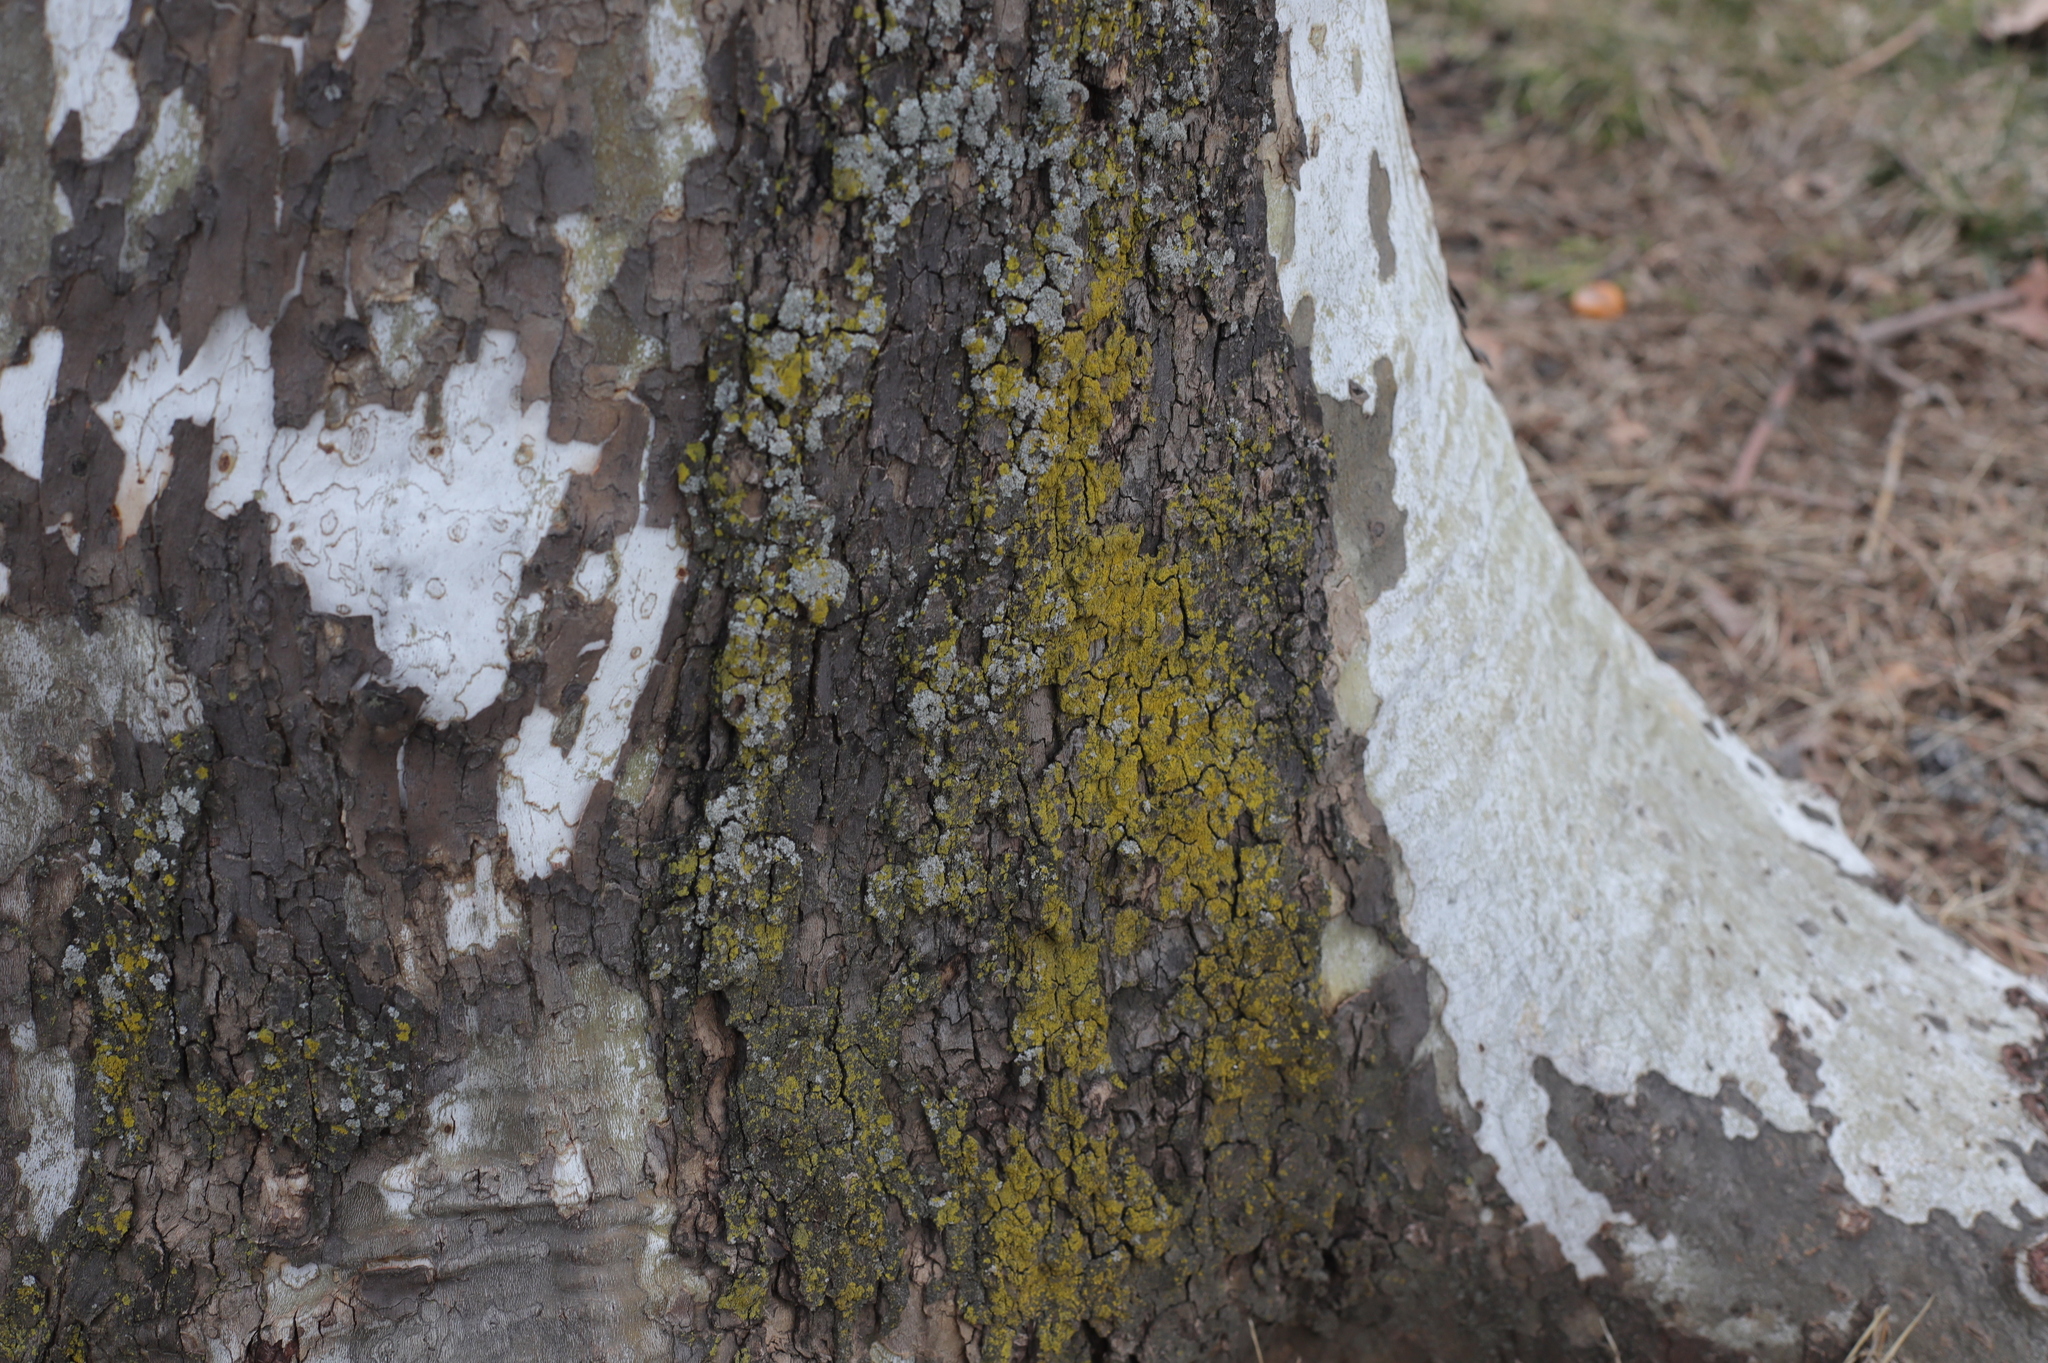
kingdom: Fungi
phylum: Ascomycota
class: Candelariomycetes
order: Candelariales
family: Candelariaceae
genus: Candelaria
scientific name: Candelaria concolor
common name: Candleflame lichen
